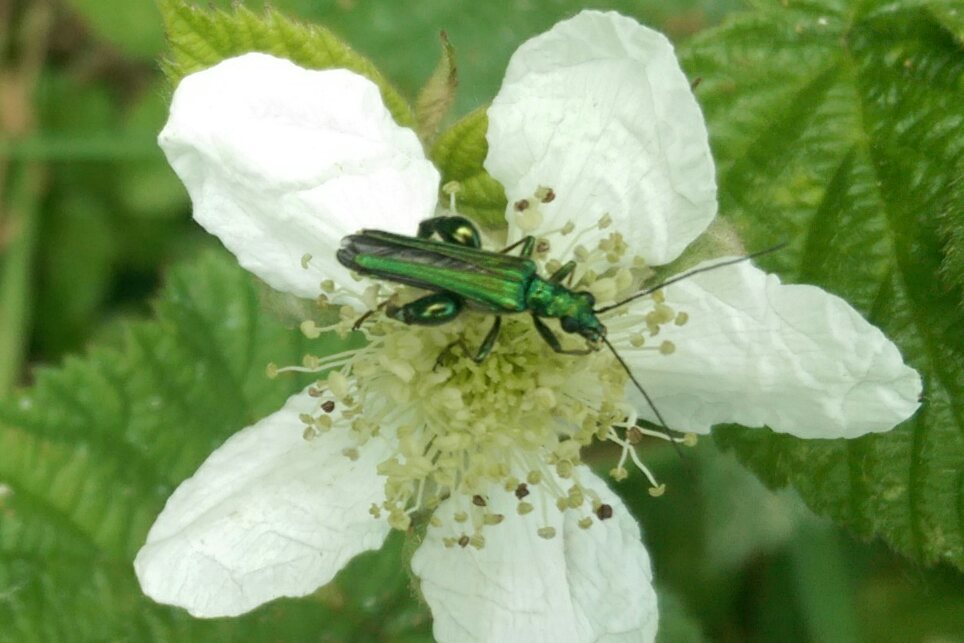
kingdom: Animalia
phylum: Arthropoda
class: Insecta
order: Coleoptera
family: Oedemeridae
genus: Oedemera
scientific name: Oedemera nobilis
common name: Swollen-thighed beetle
